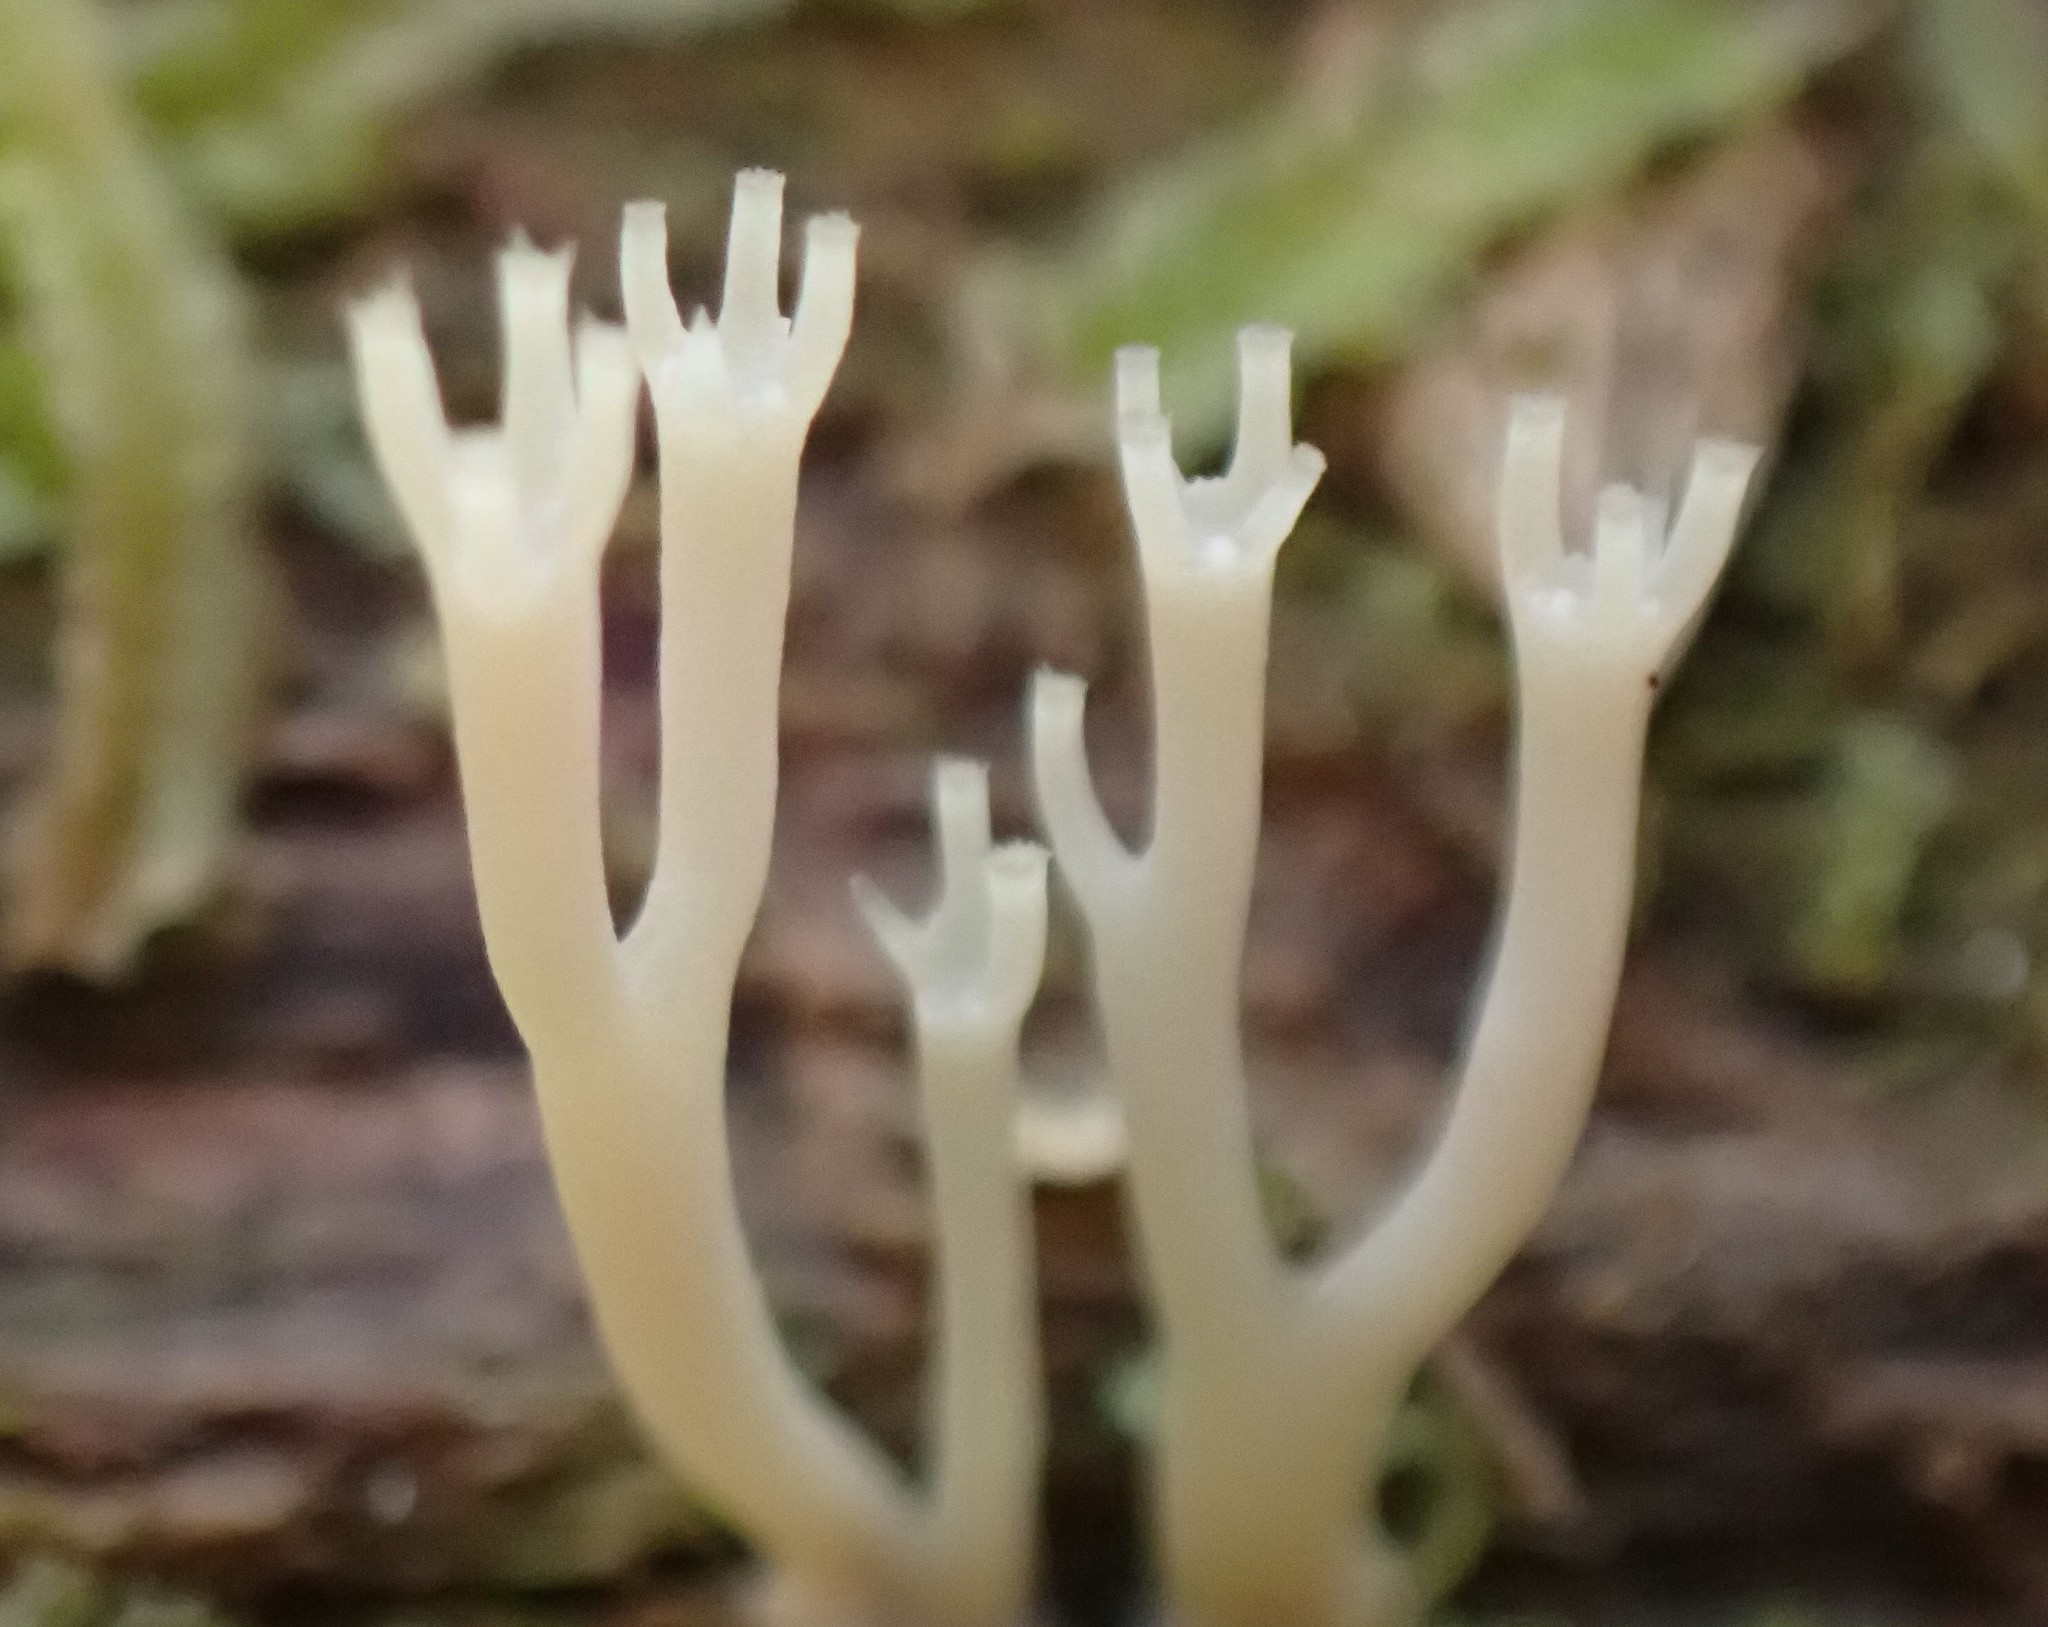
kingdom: Fungi
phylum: Basidiomycota
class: Agaricomycetes
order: Russulales
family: Auriscalpiaceae
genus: Artomyces
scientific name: Artomyces austropiperatus
